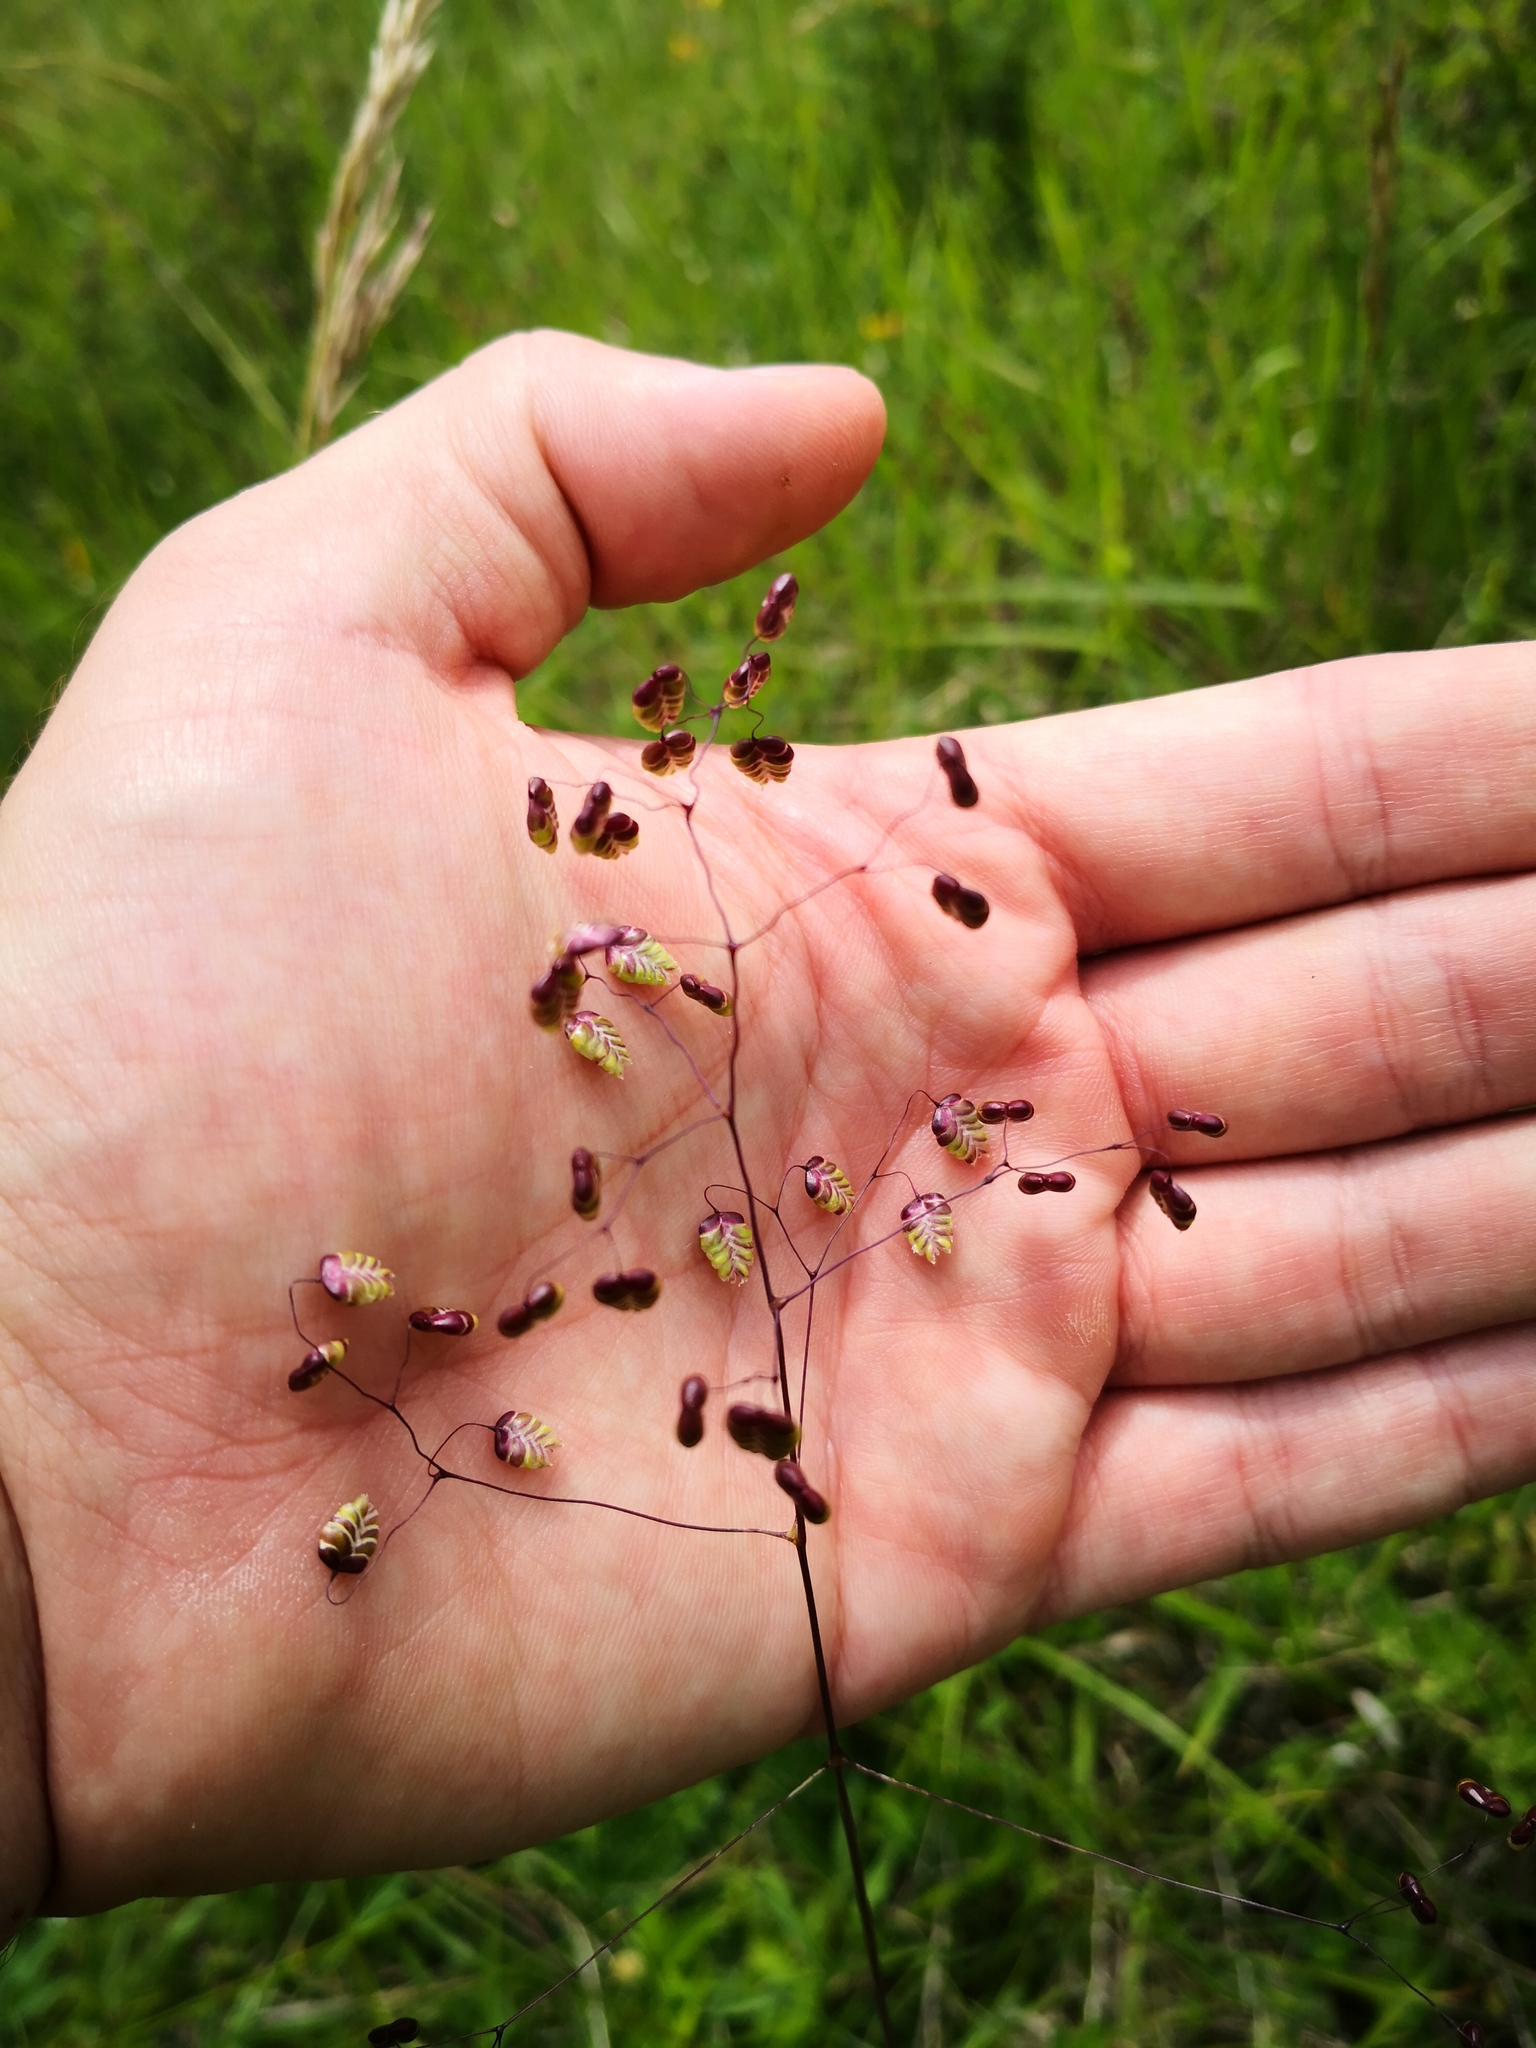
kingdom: Plantae
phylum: Tracheophyta
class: Liliopsida
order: Poales
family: Poaceae
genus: Briza
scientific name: Briza media
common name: Quaking grass
